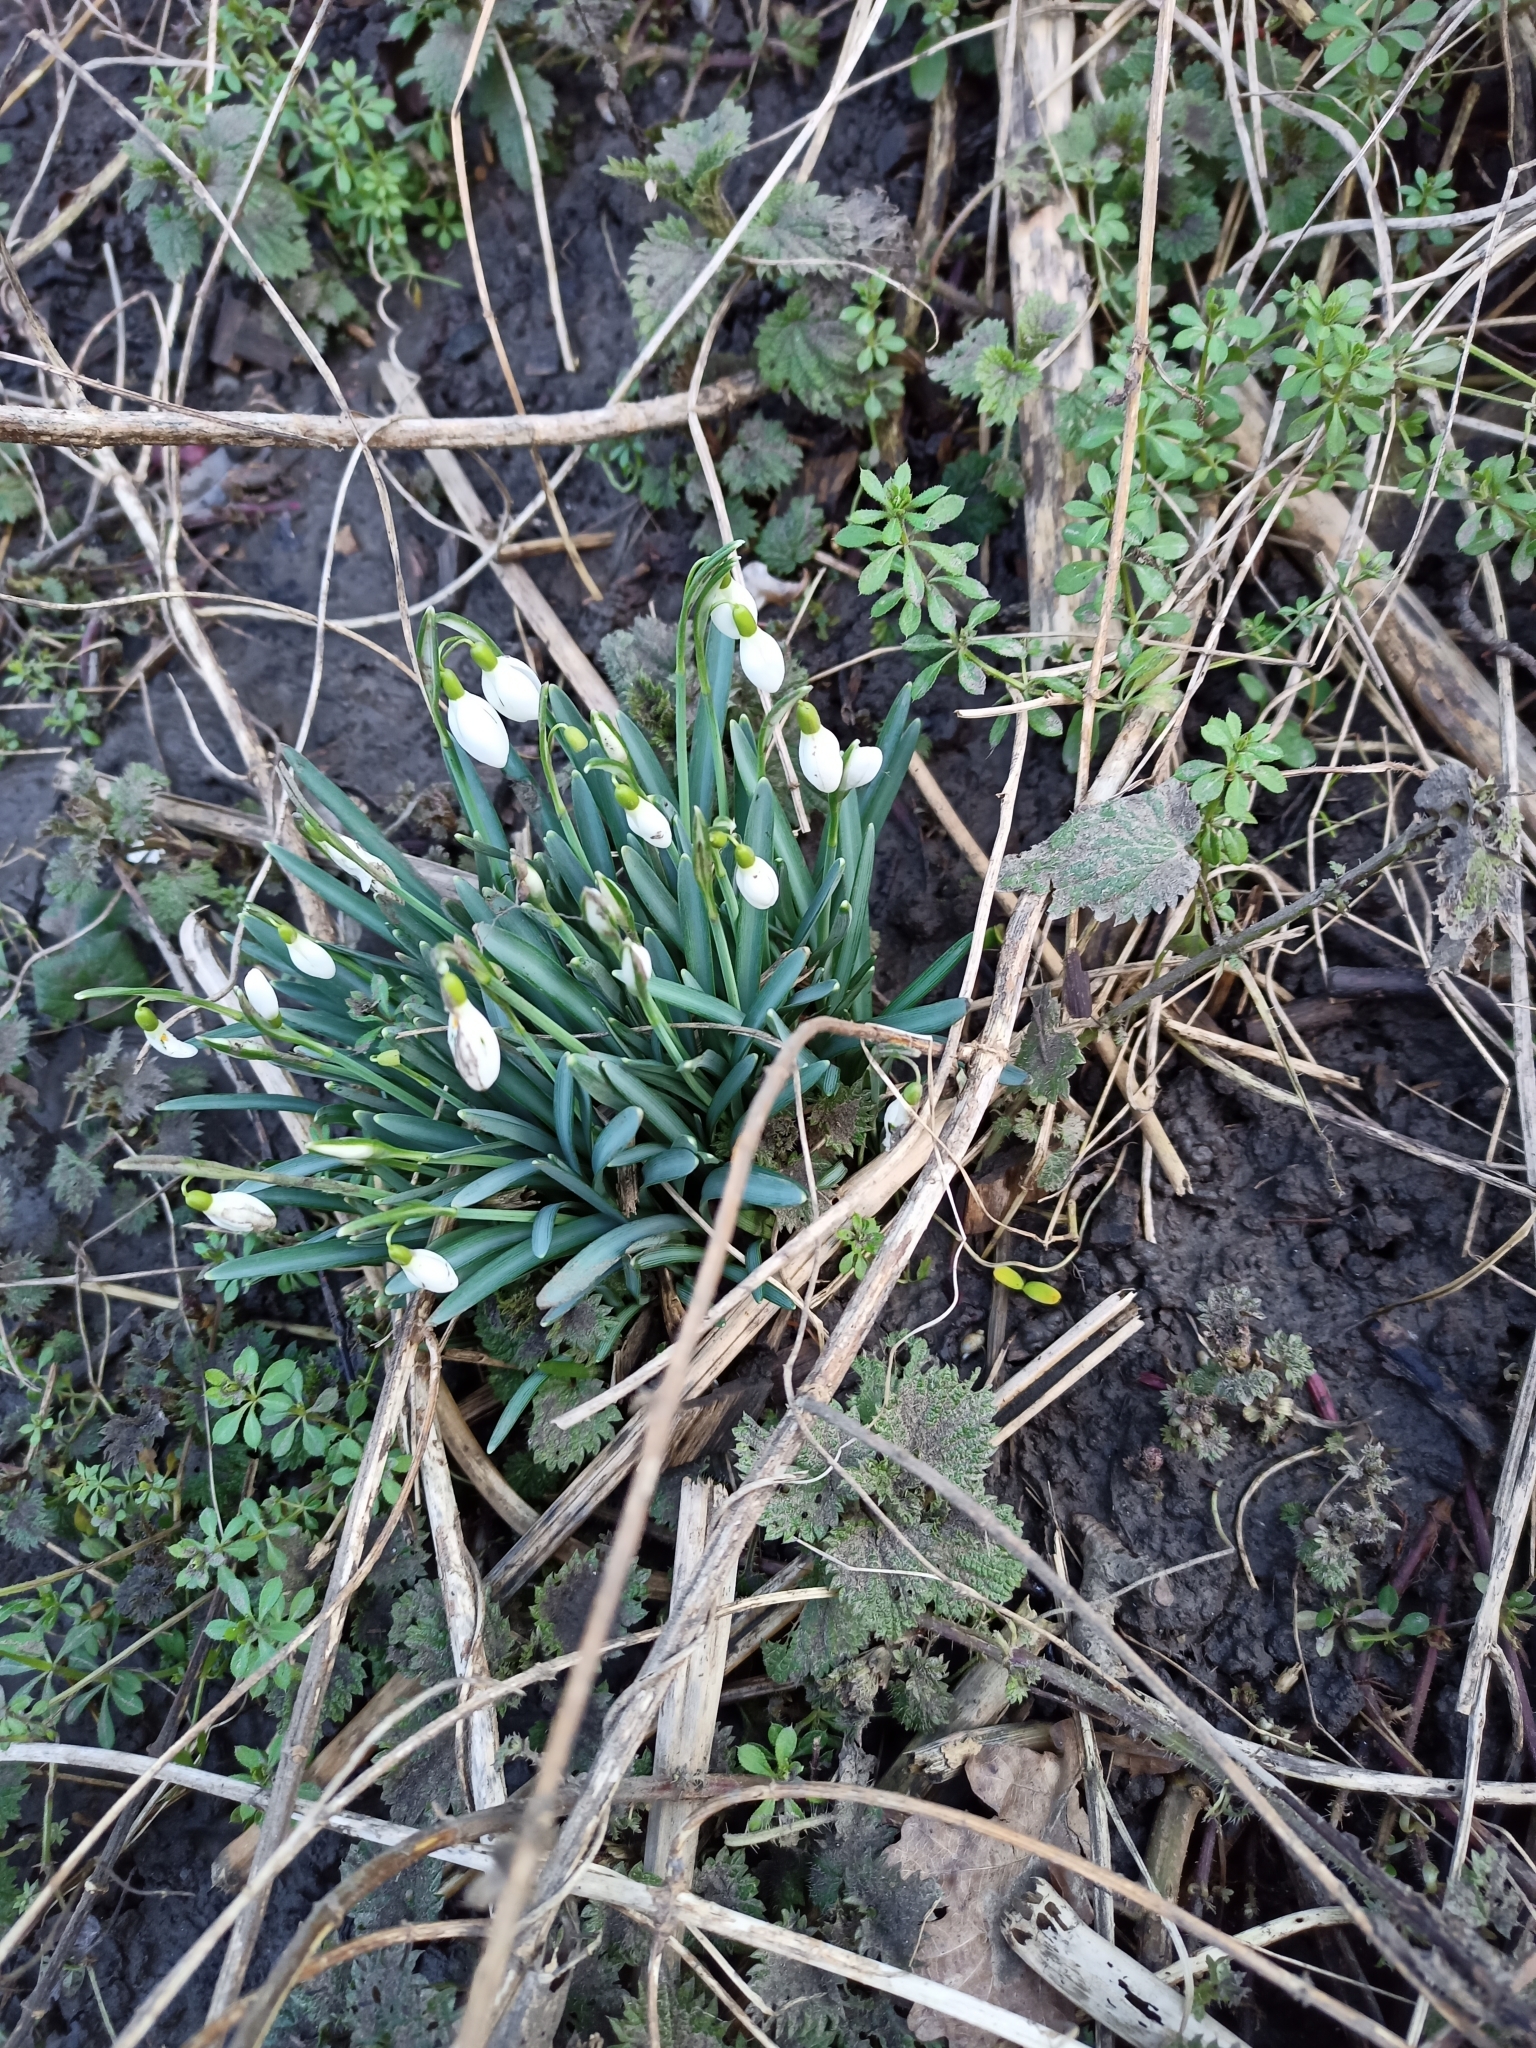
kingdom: Plantae
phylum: Tracheophyta
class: Liliopsida
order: Asparagales
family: Amaryllidaceae
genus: Galanthus
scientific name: Galanthus nivalis
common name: Snowdrop
